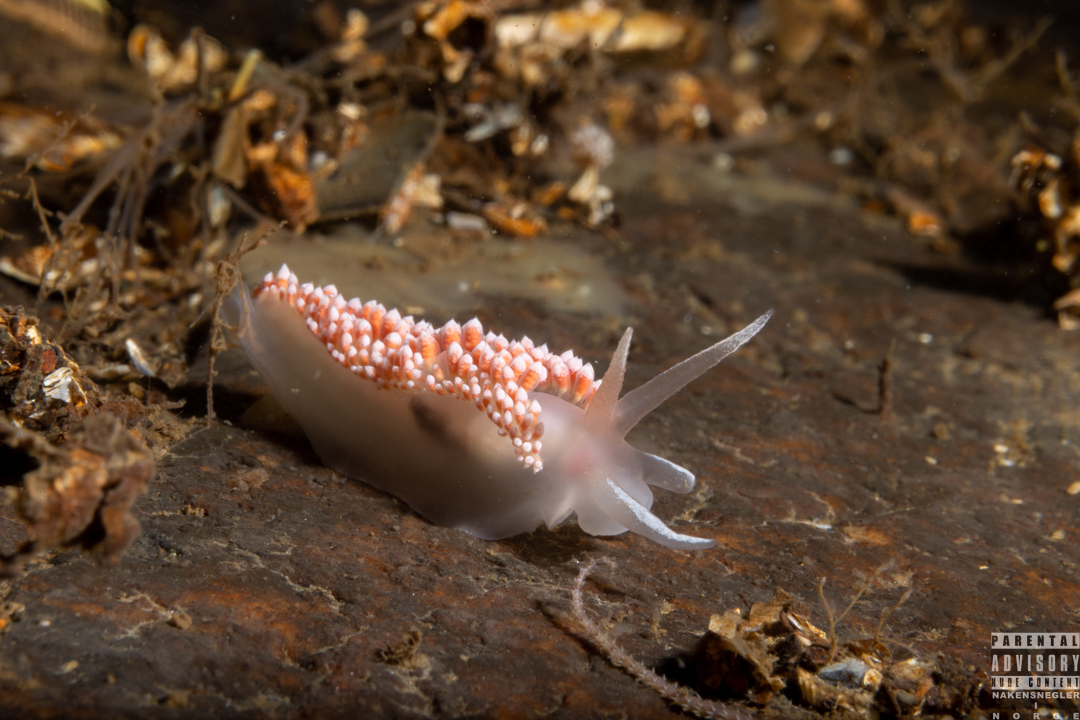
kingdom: Animalia
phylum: Mollusca
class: Gastropoda
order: Nudibranchia
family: Coryphellidae
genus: Coryphella
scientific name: Coryphella verrucosa
